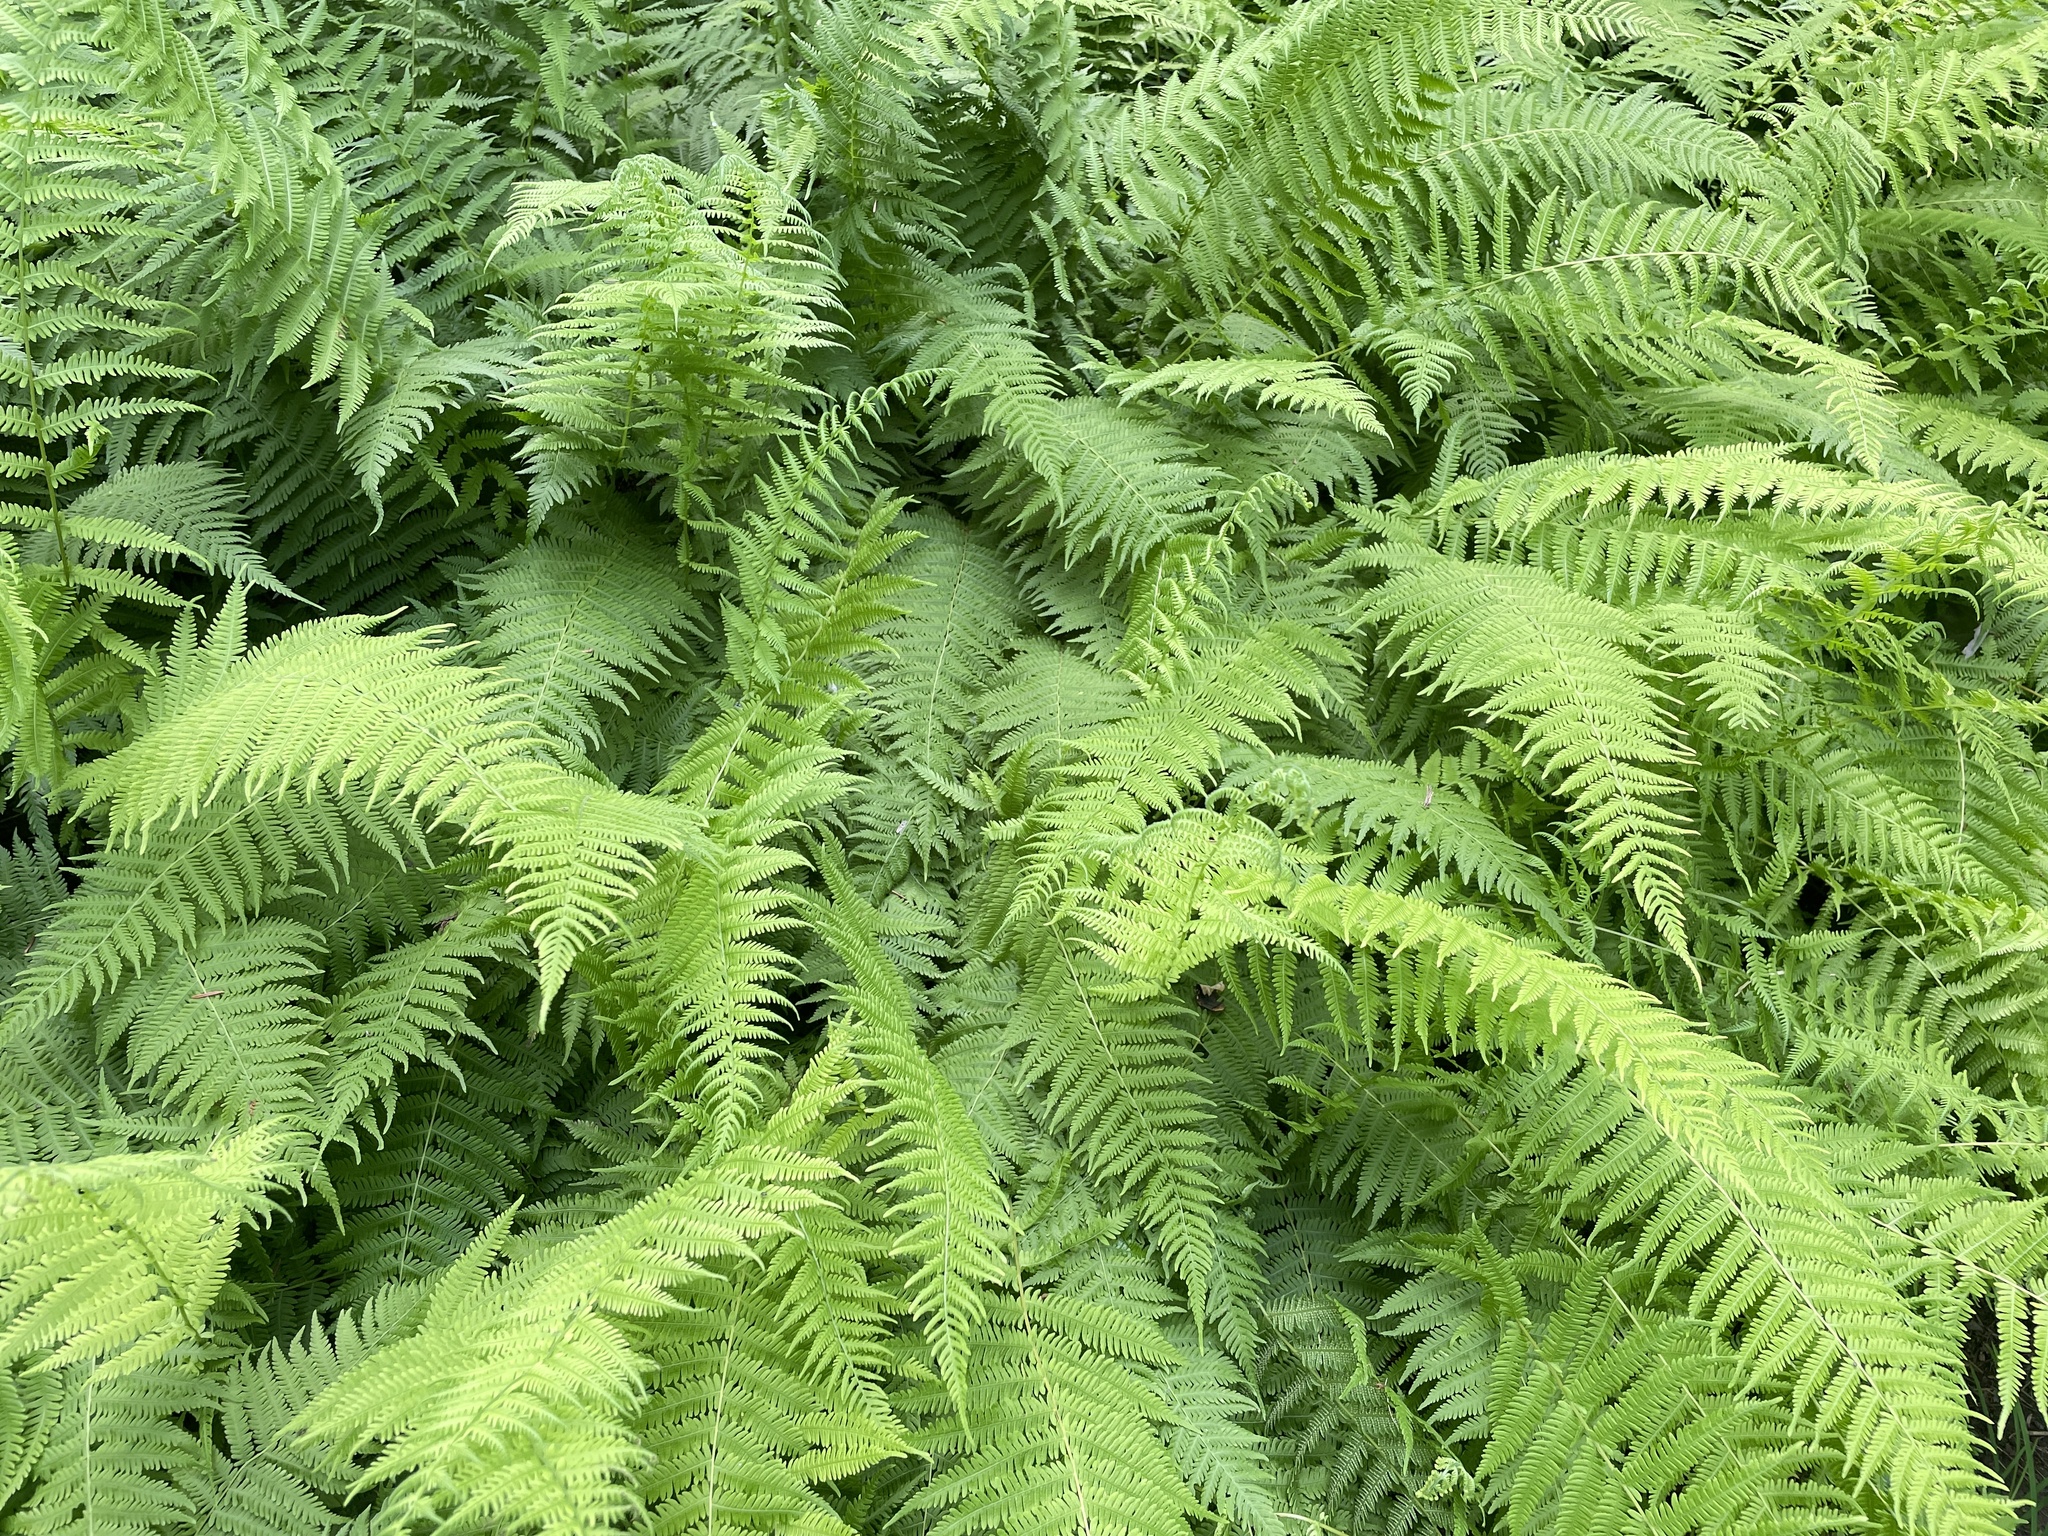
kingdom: Plantae
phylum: Tracheophyta
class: Polypodiopsida
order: Polypodiales
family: Dennstaedtiaceae
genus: Sitobolium
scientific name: Sitobolium punctilobum
